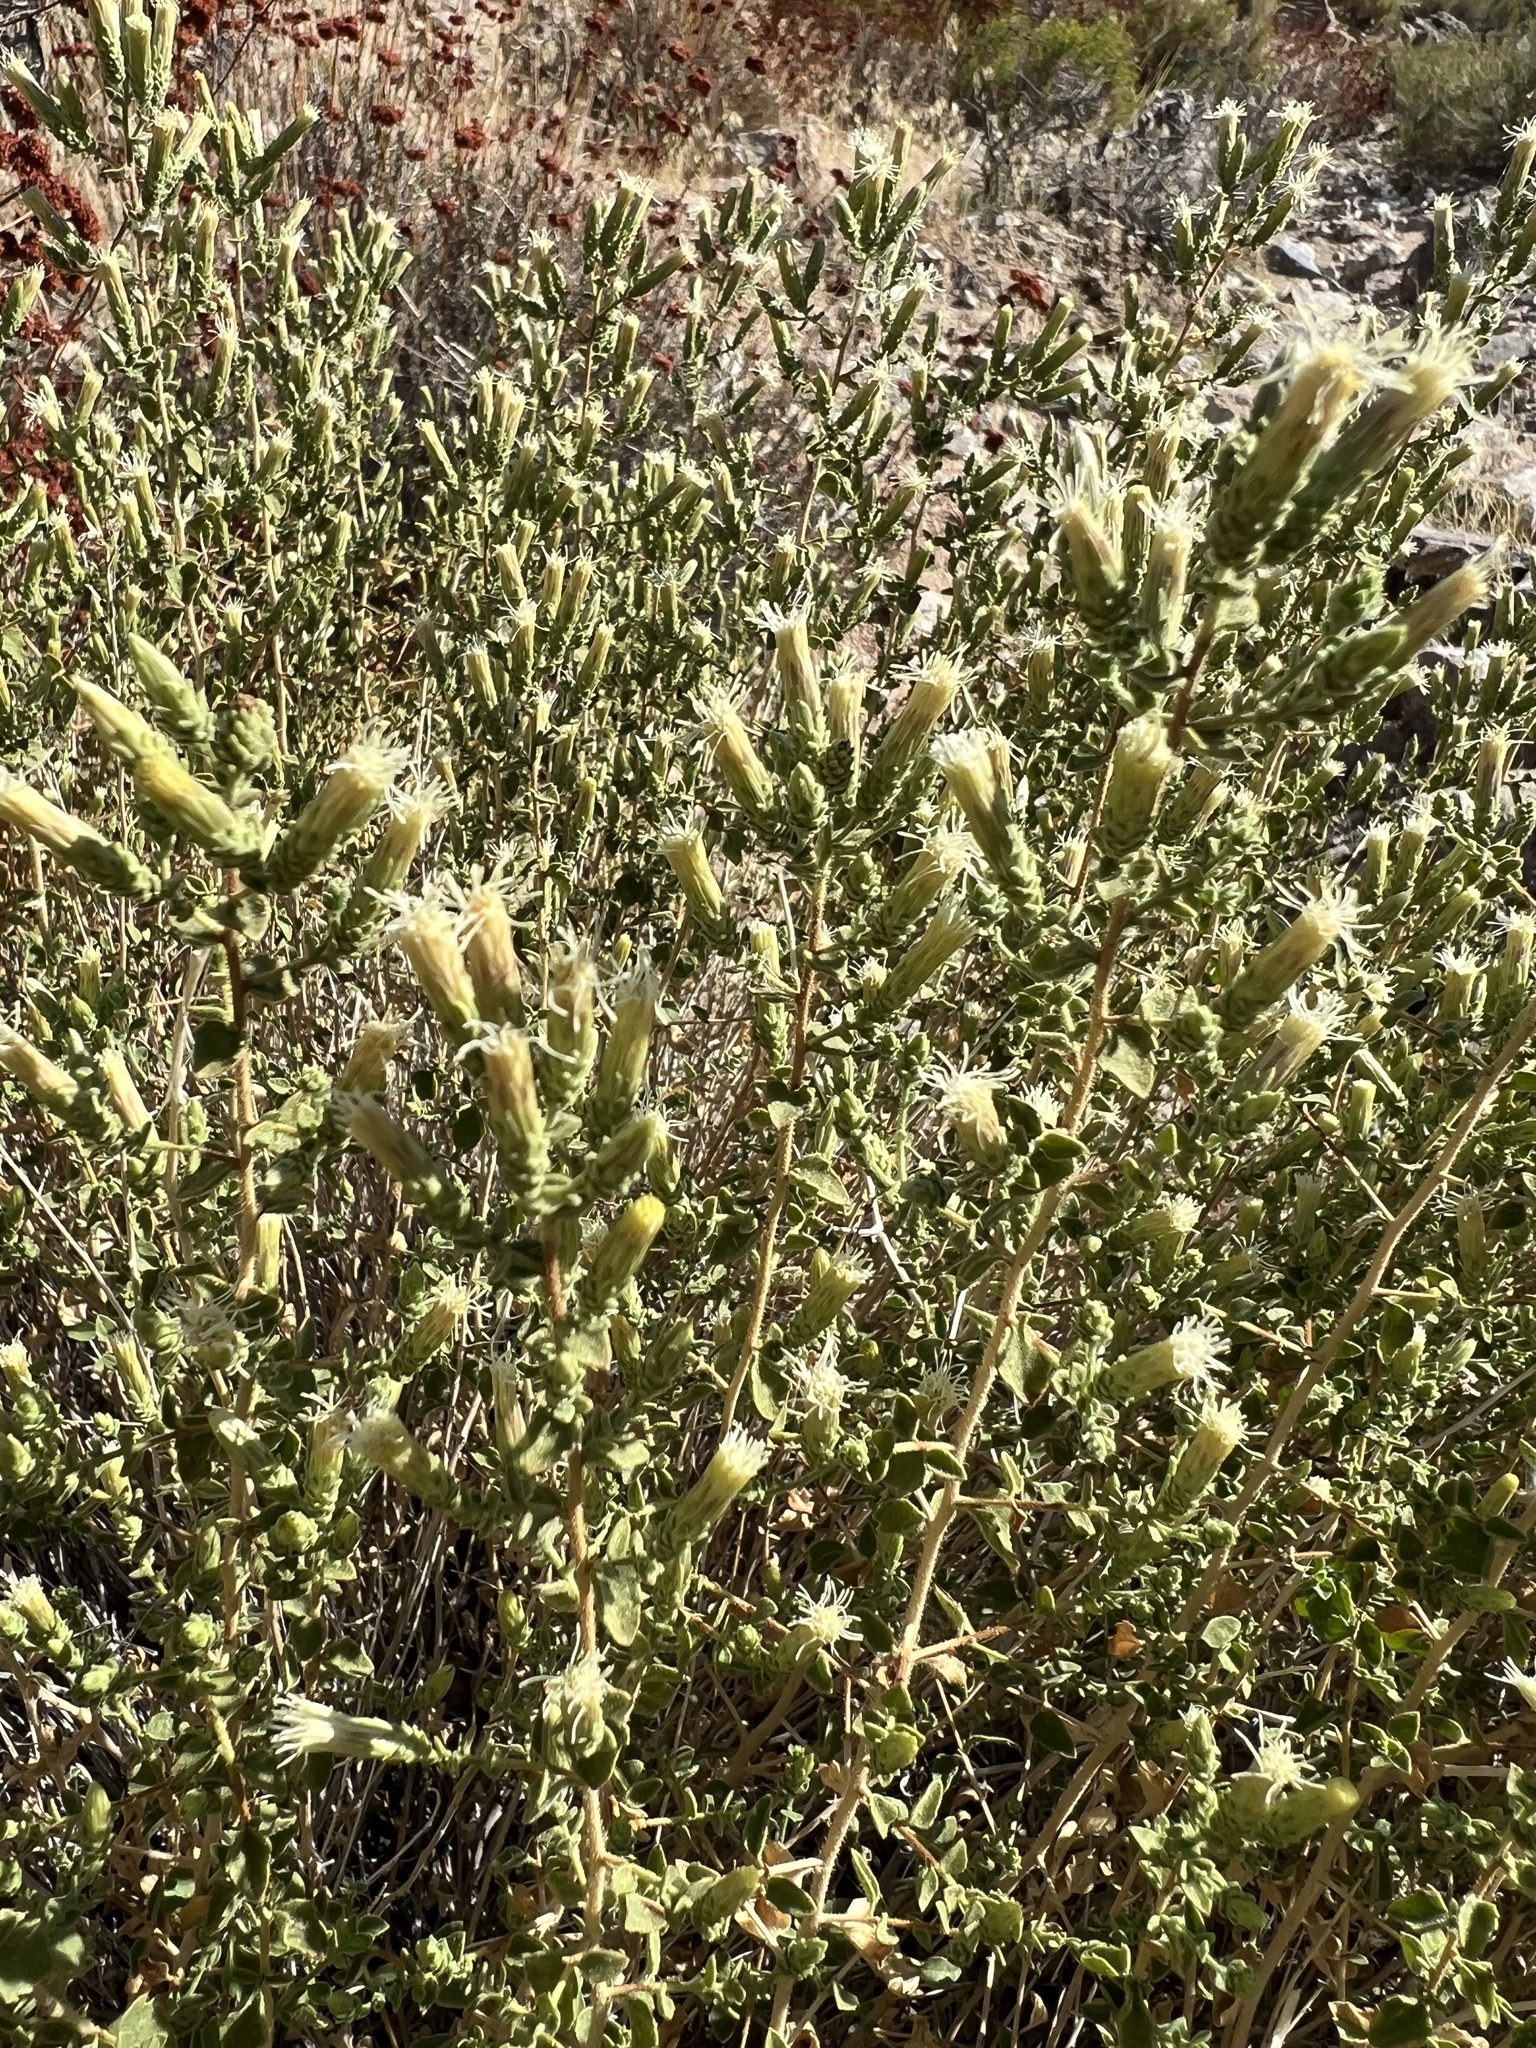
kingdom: Plantae
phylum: Tracheophyta
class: Magnoliopsida
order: Asterales
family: Asteraceae
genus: Brickellia
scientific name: Brickellia microphylla
